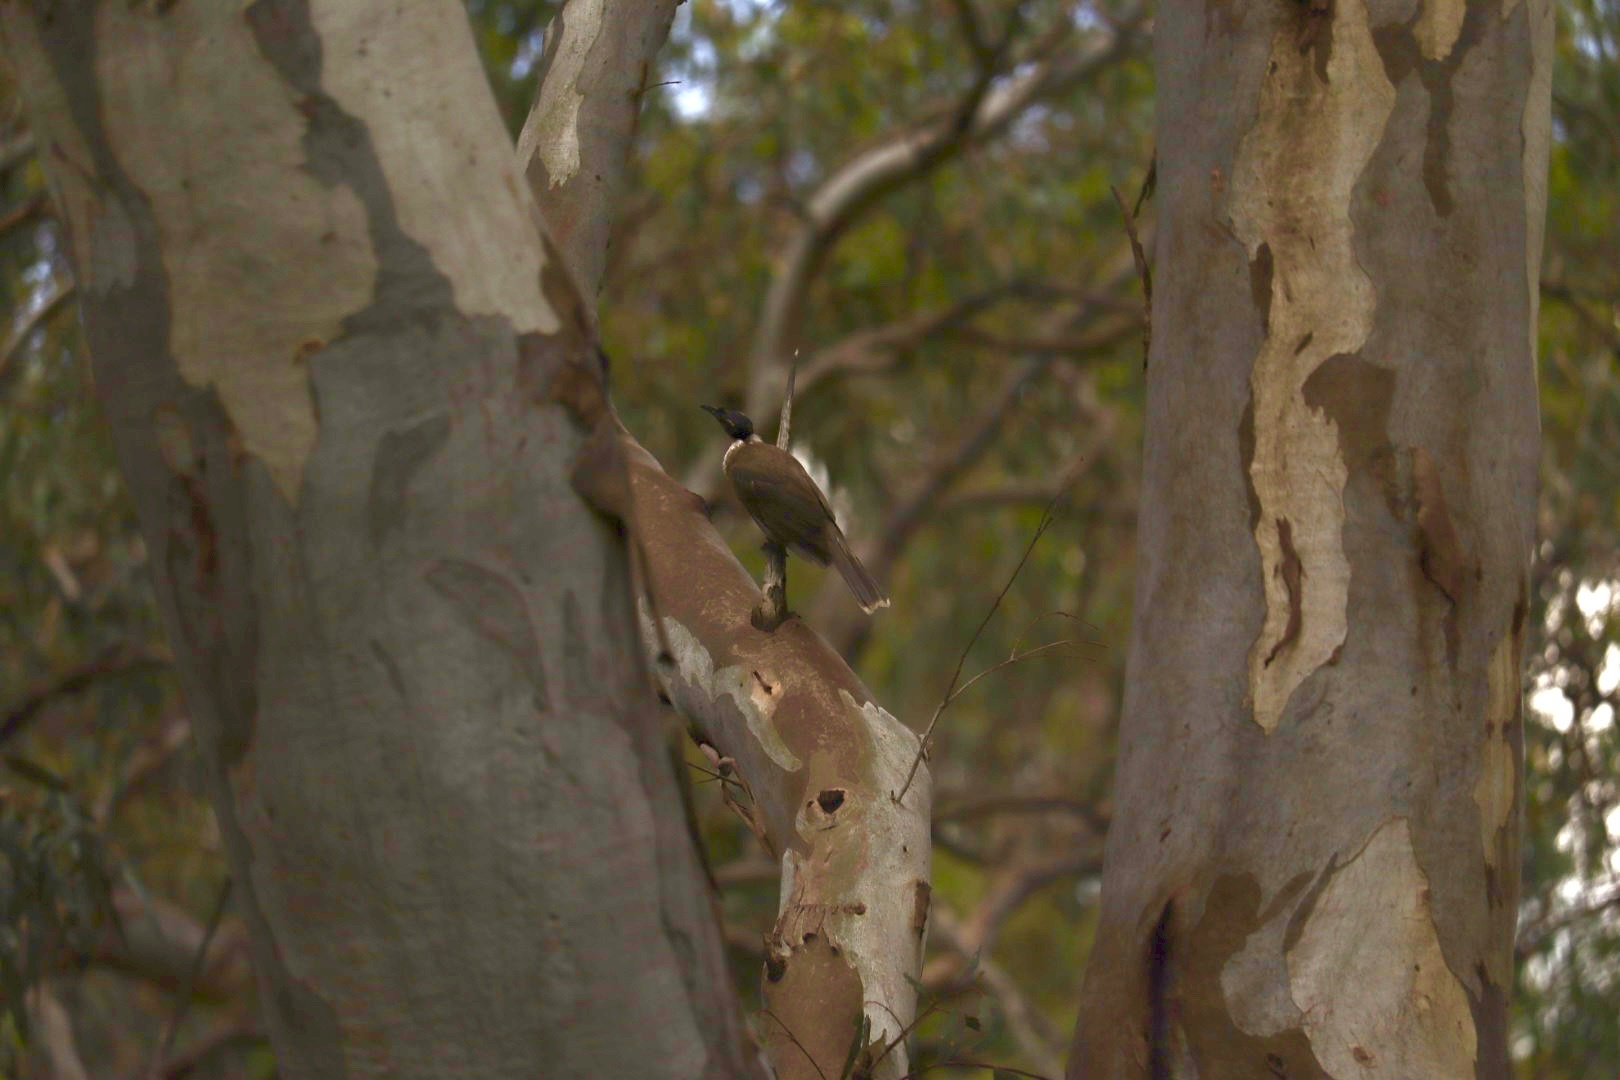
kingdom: Animalia
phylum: Chordata
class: Aves
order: Passeriformes
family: Meliphagidae
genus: Philemon
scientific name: Philemon corniculatus
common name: Noisy friarbird
